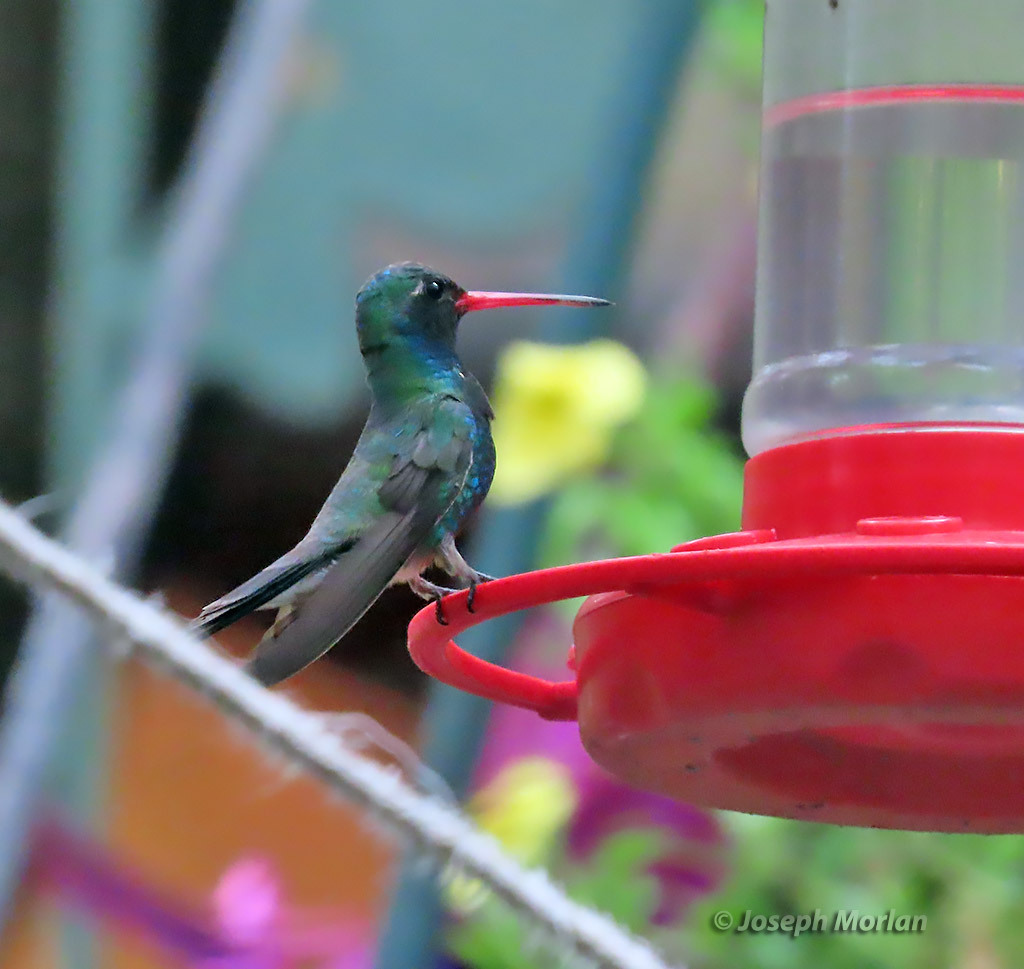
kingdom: Animalia
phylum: Chordata
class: Aves
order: Apodiformes
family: Trochilidae
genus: Cynanthus
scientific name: Cynanthus latirostris
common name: Broad-billed hummingbird
